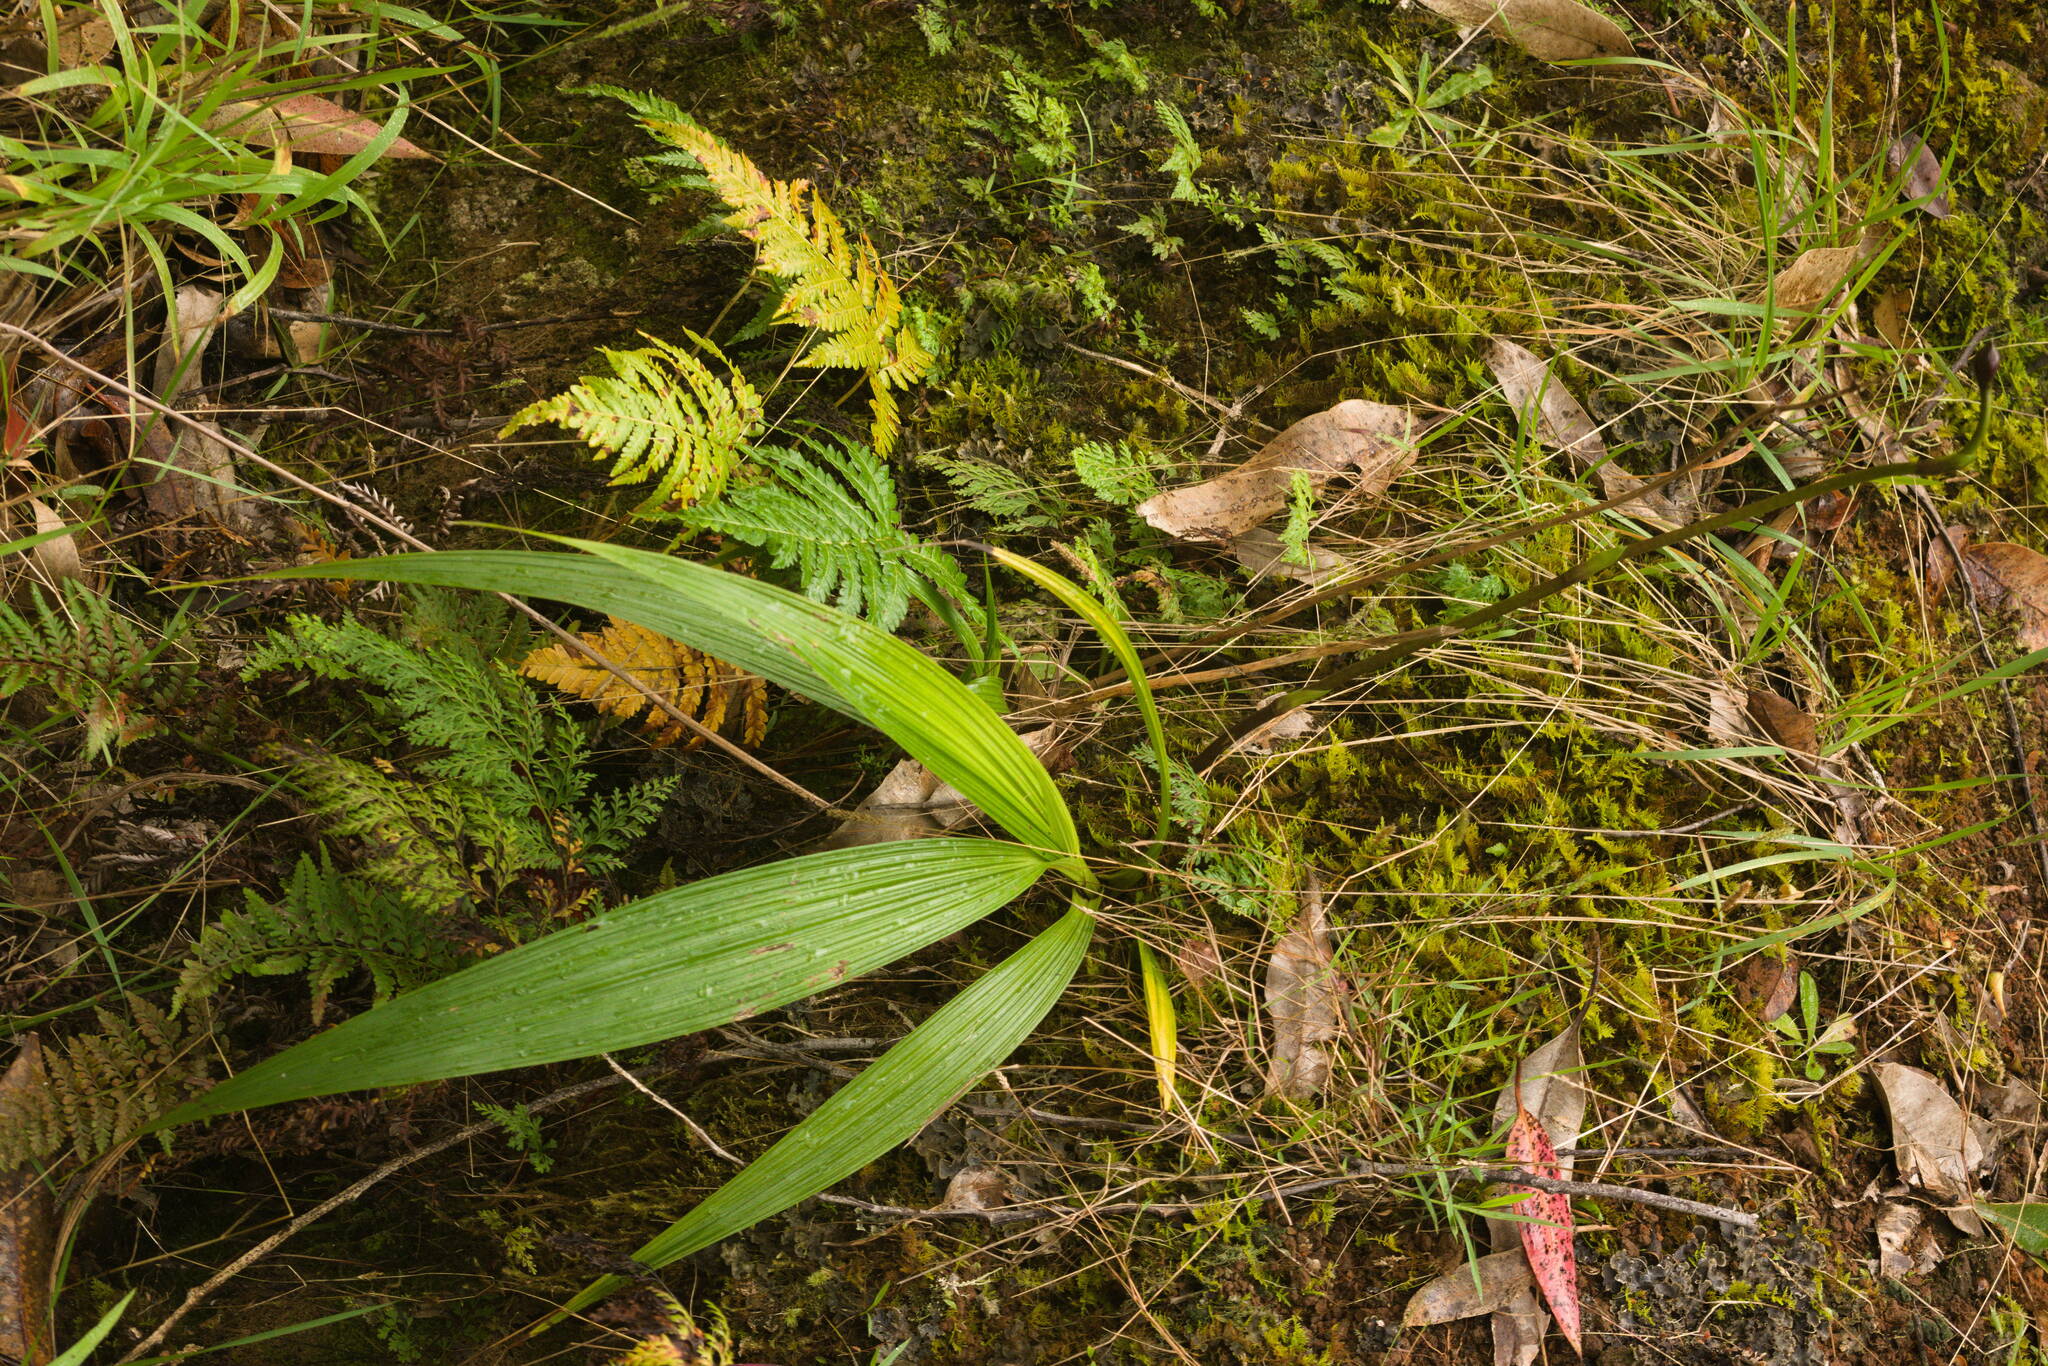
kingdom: Plantae
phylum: Tracheophyta
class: Liliopsida
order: Asparagales
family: Orchidaceae
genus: Spathoglottis
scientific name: Spathoglottis plicata
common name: Philippine ground orchid
